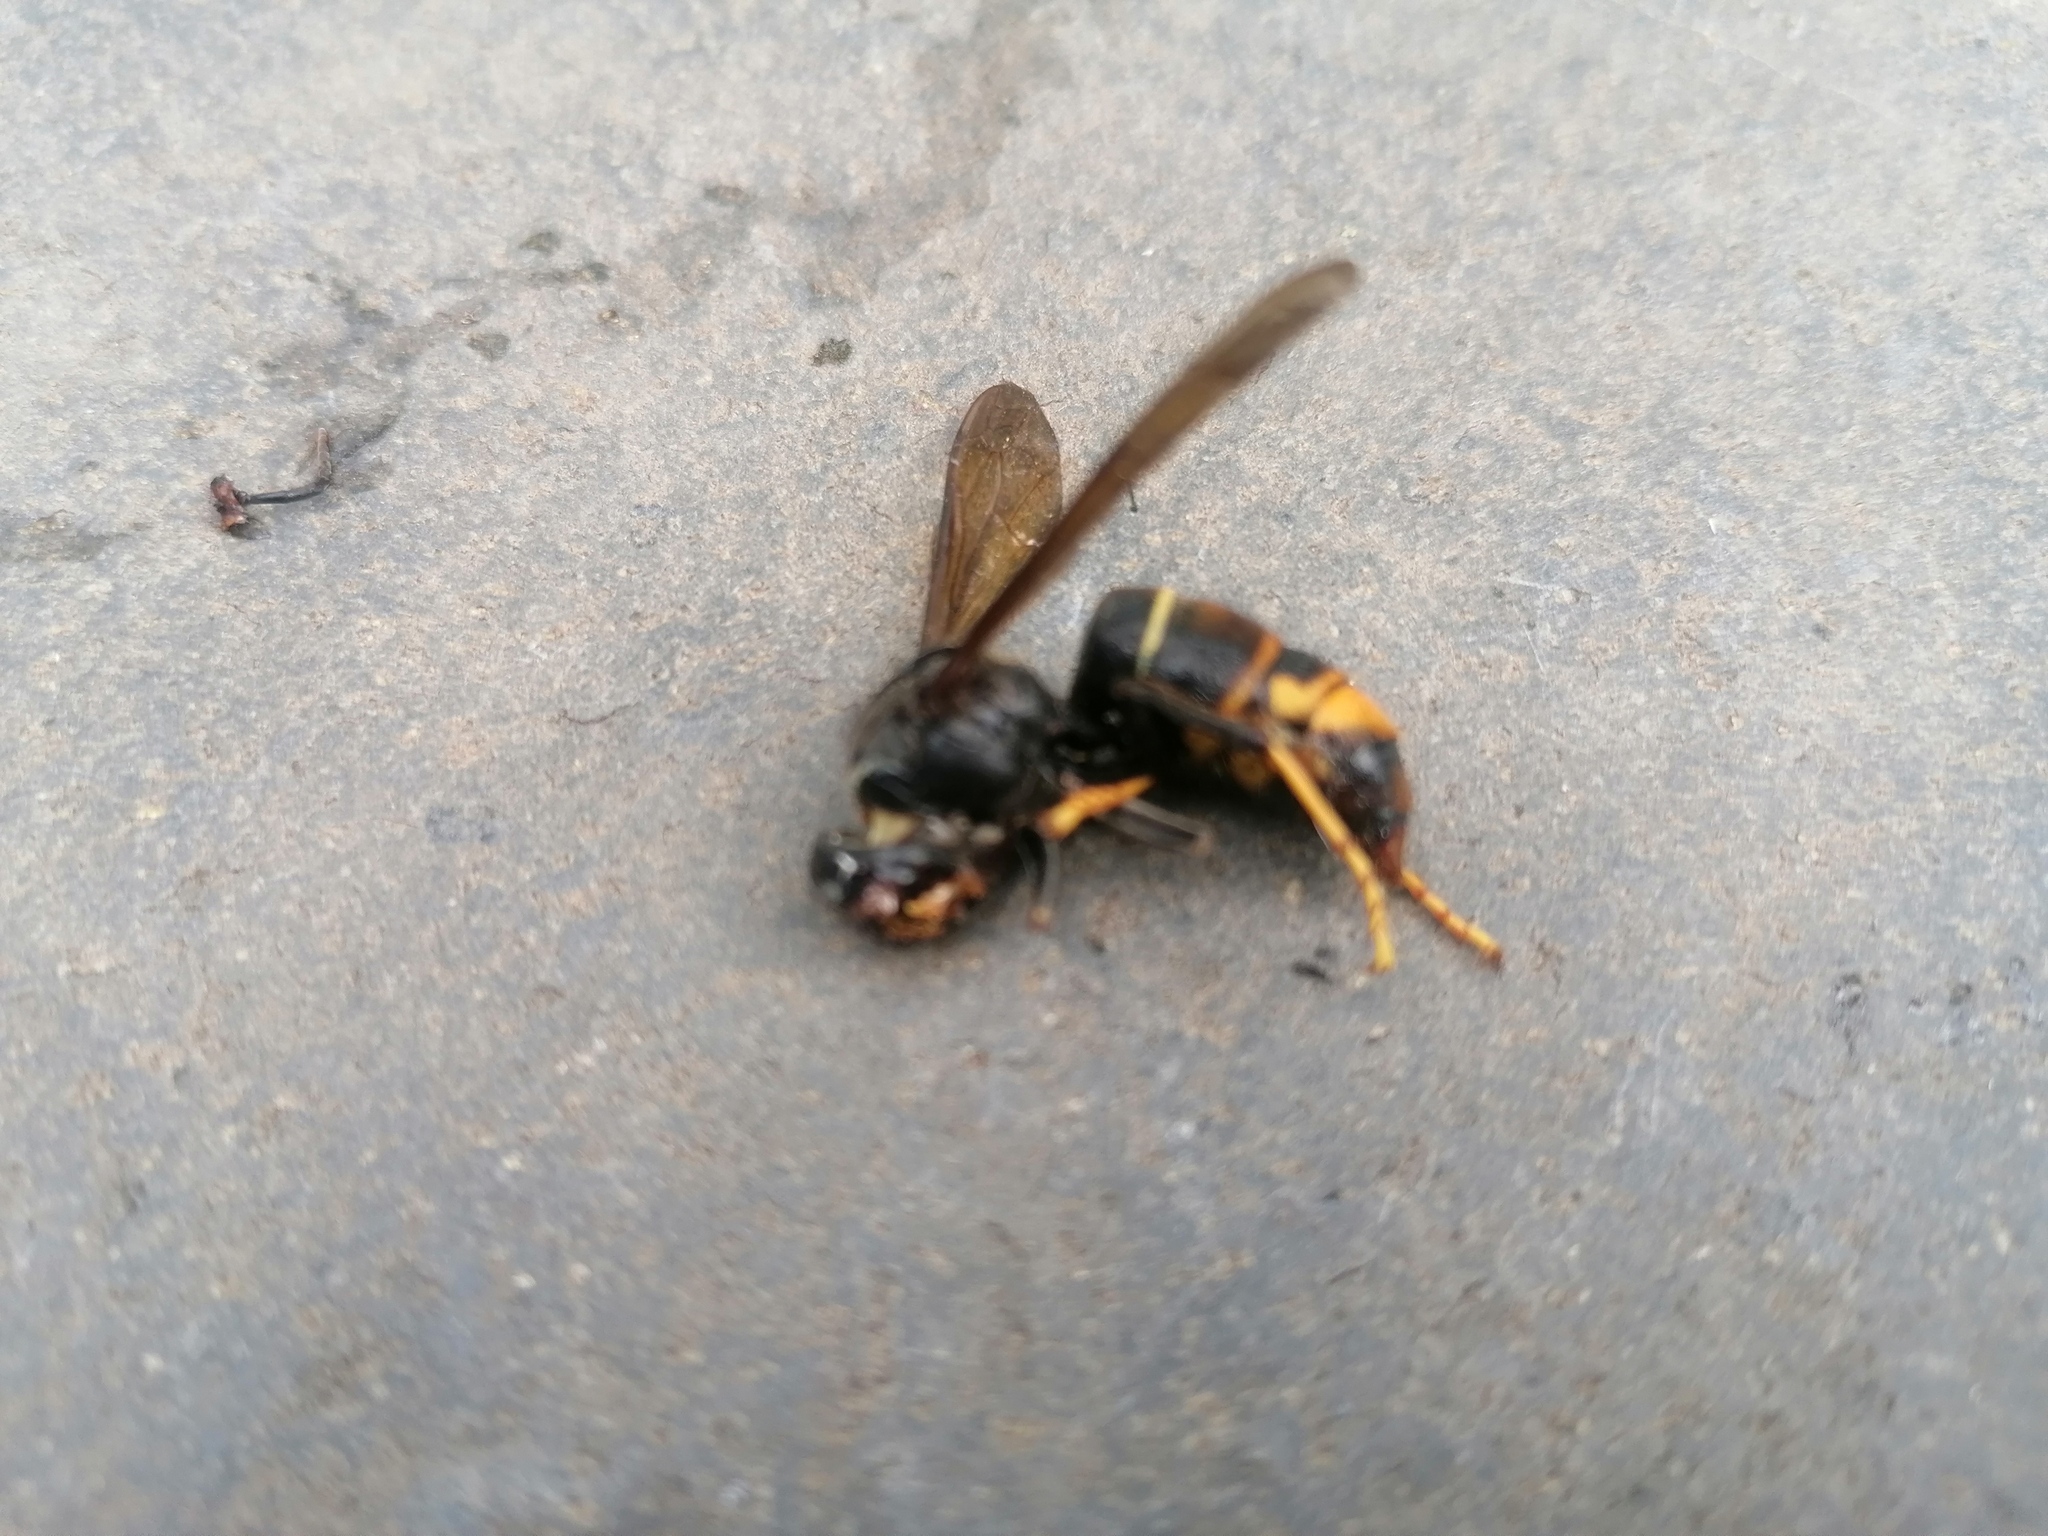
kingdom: Animalia
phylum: Arthropoda
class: Insecta
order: Hymenoptera
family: Vespidae
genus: Vespa
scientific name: Vespa velutina
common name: Asian hornet
